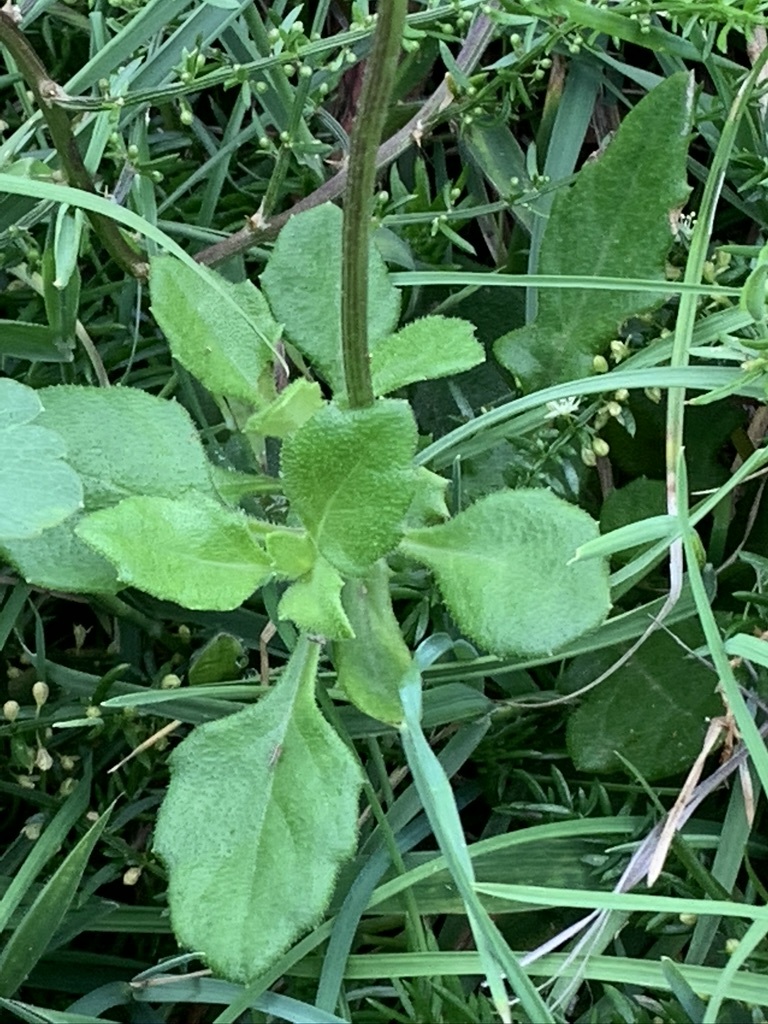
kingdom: Plantae
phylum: Tracheophyta
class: Magnoliopsida
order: Asterales
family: Asteraceae
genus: Gynura
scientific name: Gynura formosana
